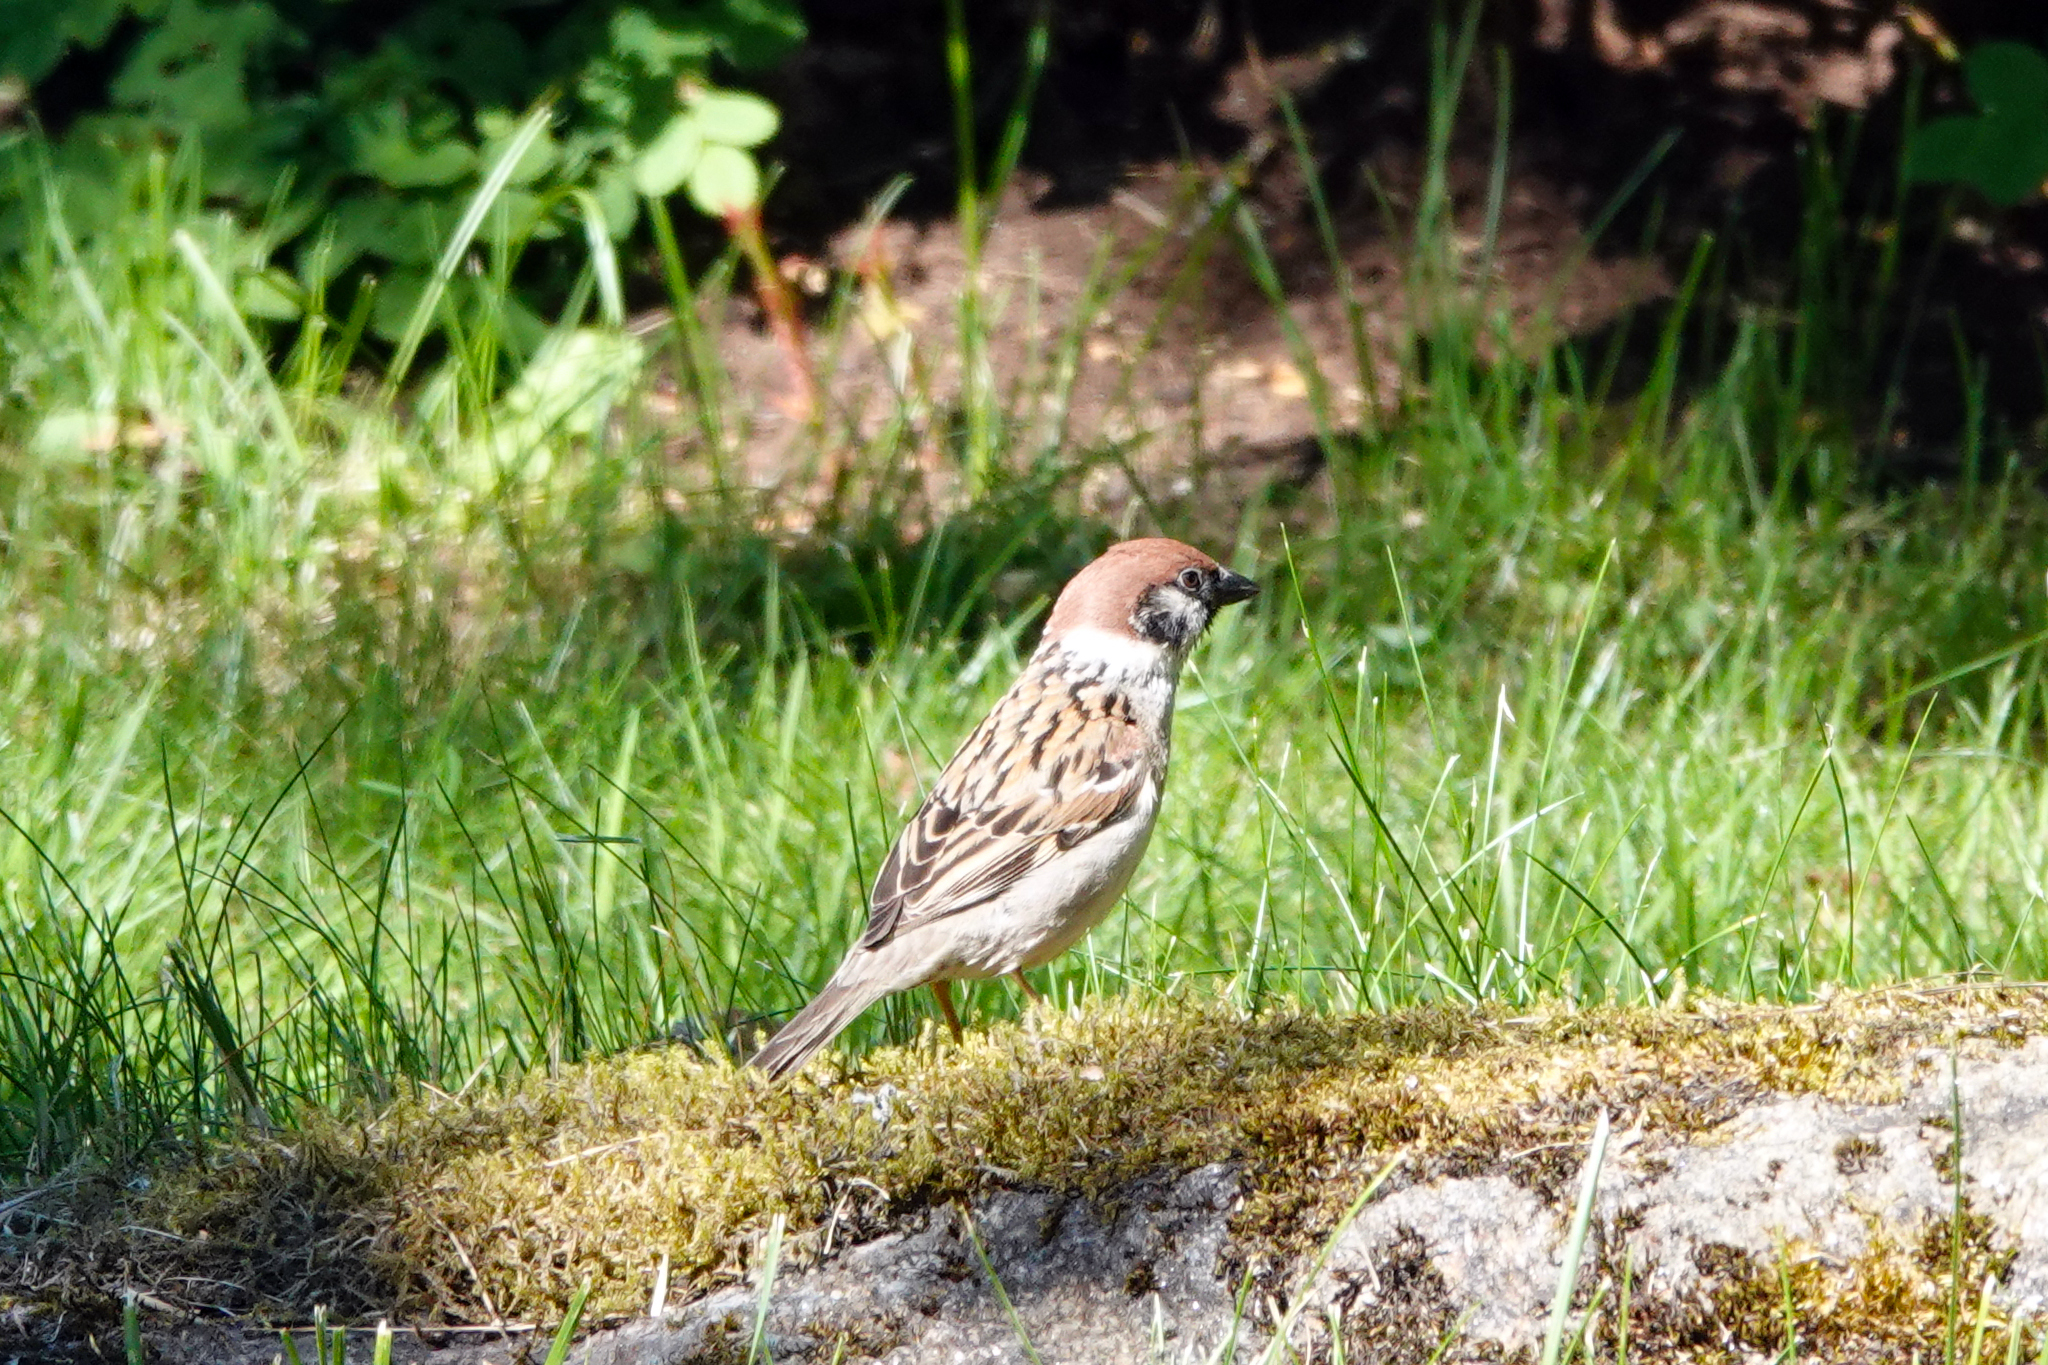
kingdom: Animalia
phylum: Chordata
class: Aves
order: Passeriformes
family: Passeridae
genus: Passer
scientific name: Passer montanus
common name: Eurasian tree sparrow
